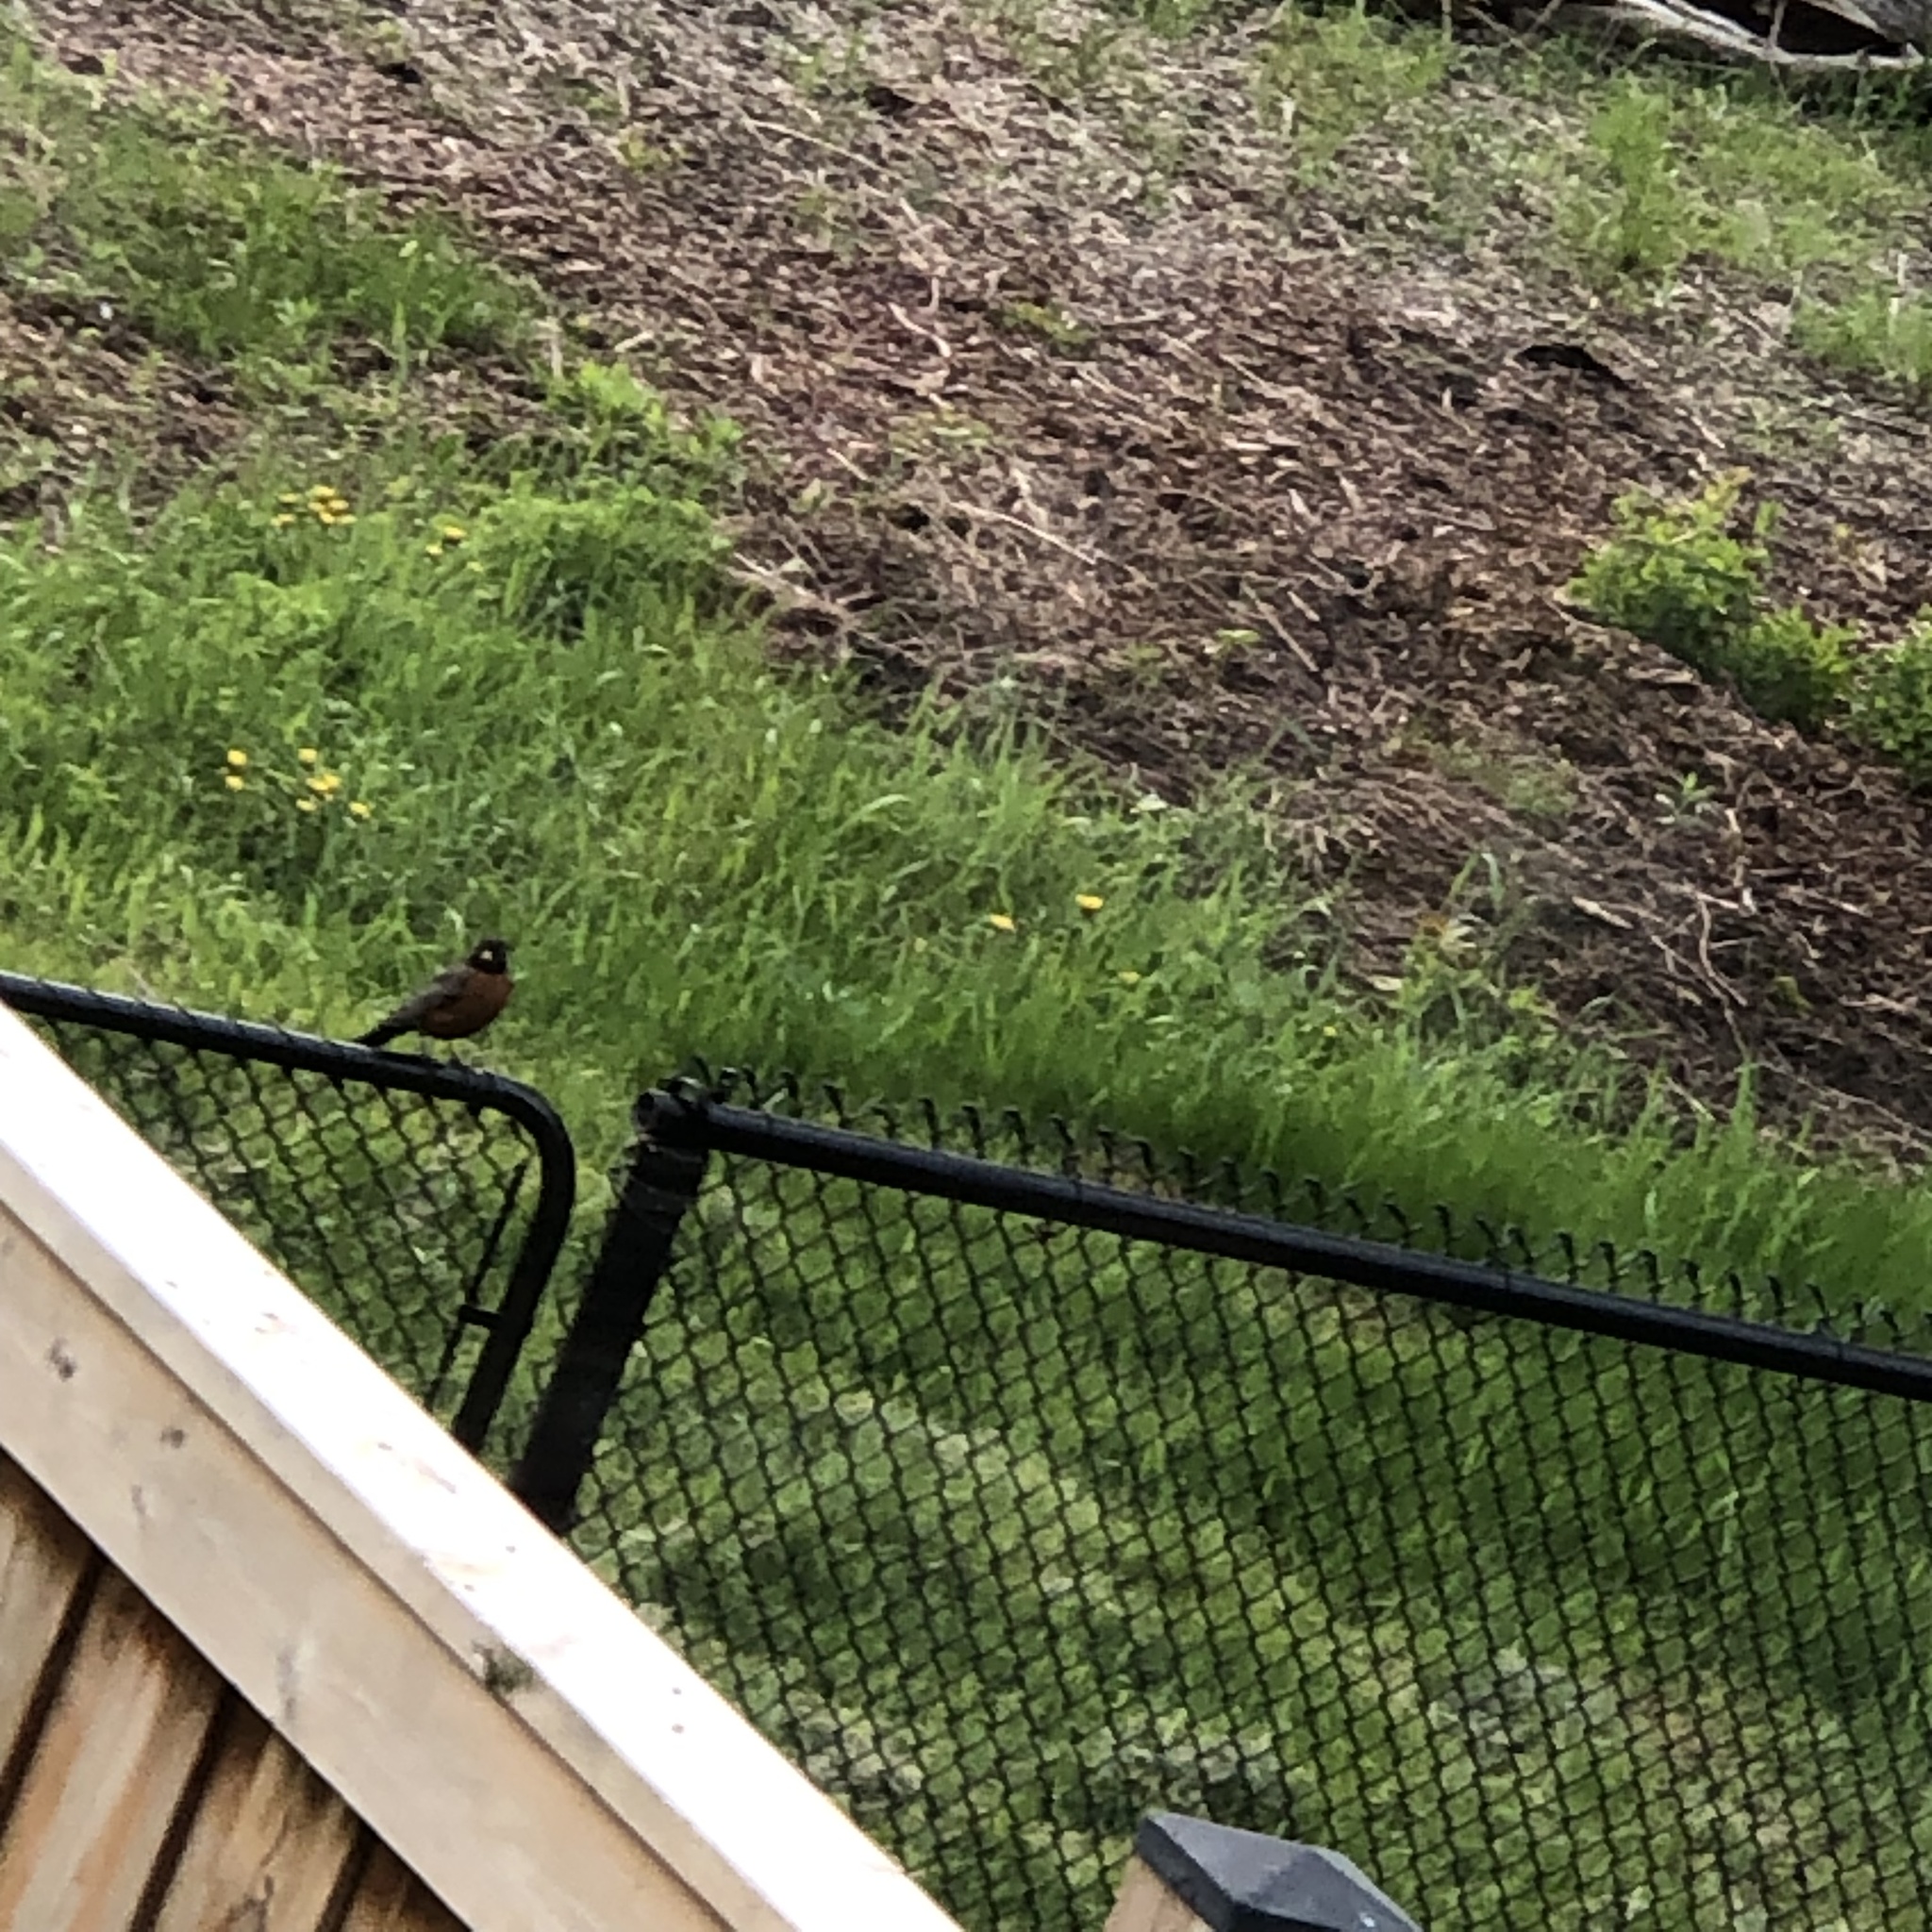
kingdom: Animalia
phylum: Chordata
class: Aves
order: Passeriformes
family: Turdidae
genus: Turdus
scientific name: Turdus migratorius
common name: American robin
